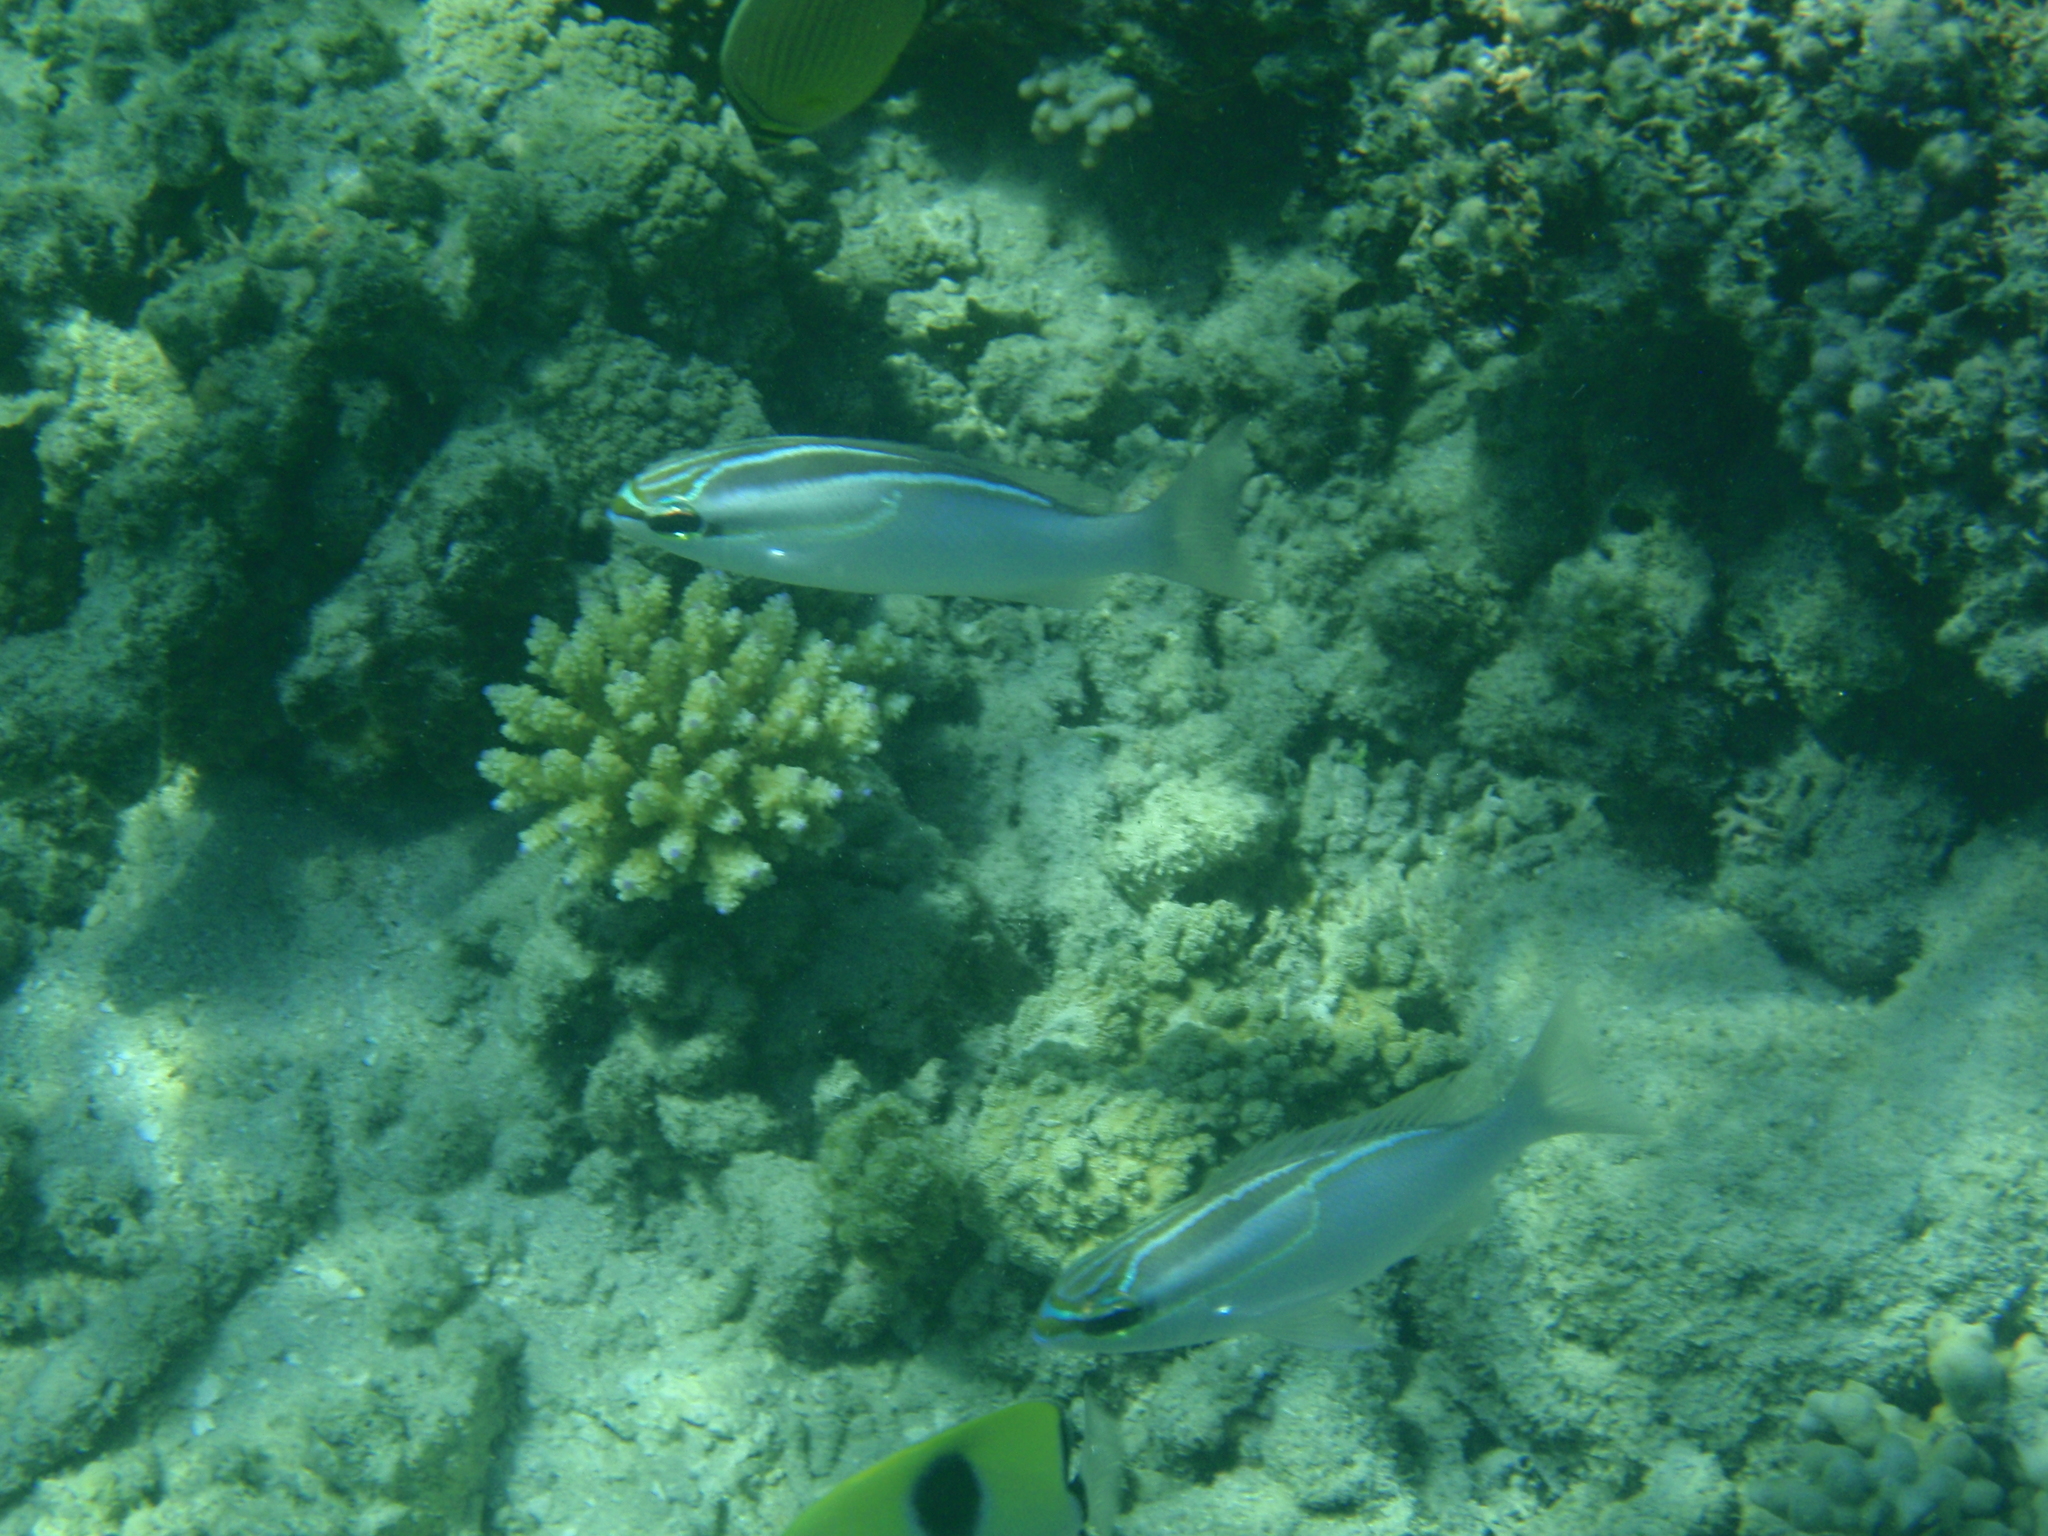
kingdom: Animalia
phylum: Chordata
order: Perciformes
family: Nemipteridae
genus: Scolopsis
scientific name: Scolopsis trilineata
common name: Three-lined monocle bream
